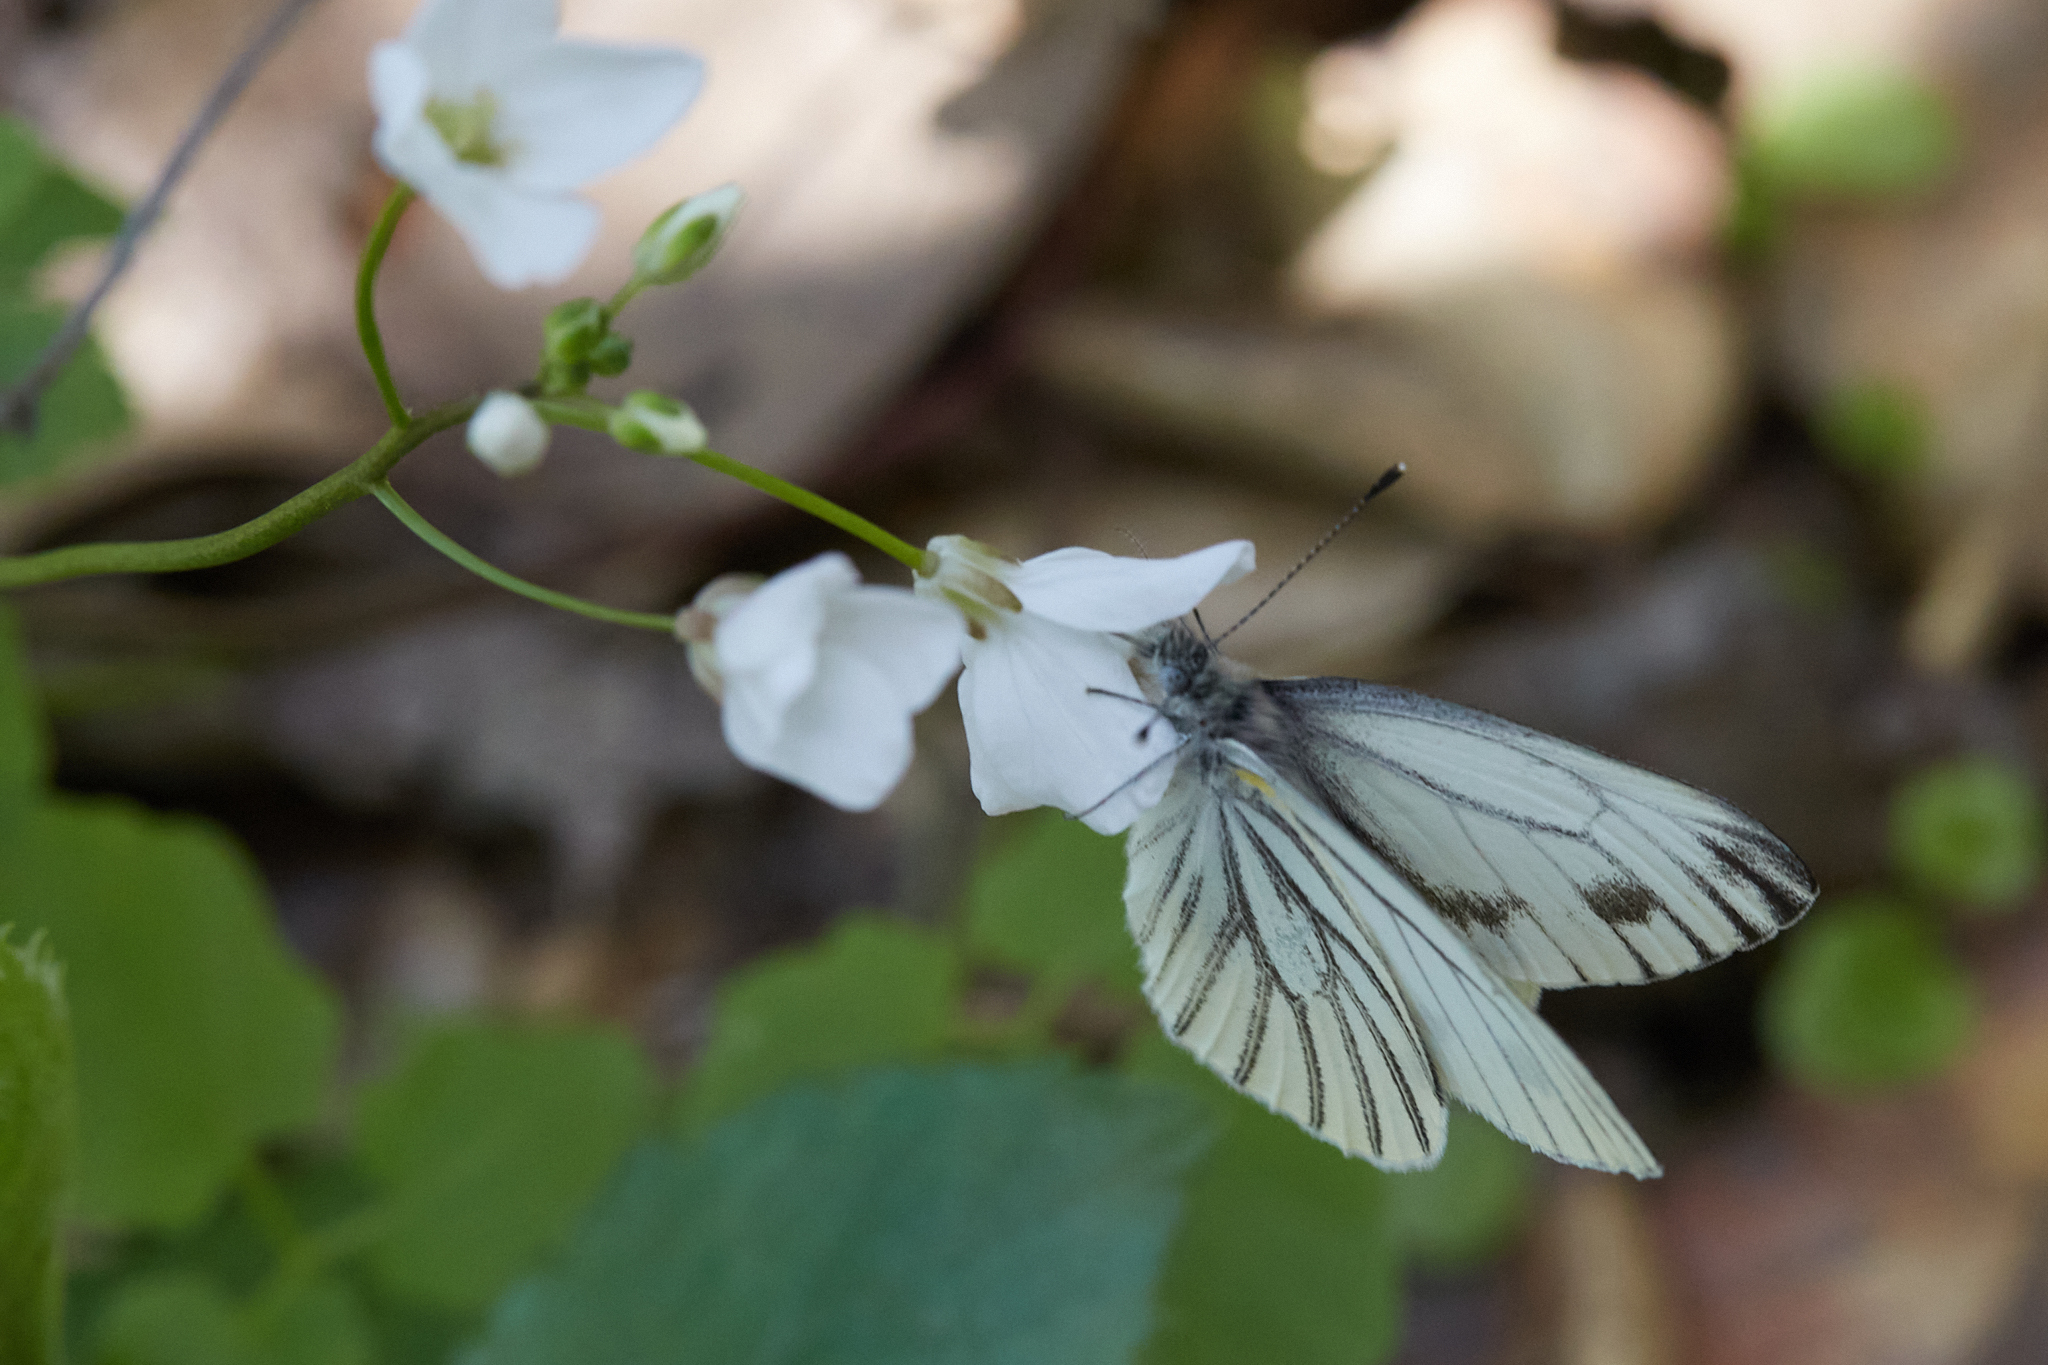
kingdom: Animalia
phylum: Arthropoda
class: Insecta
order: Lepidoptera
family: Pieridae
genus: Pieris
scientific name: Pieris marginalis
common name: Margined white
